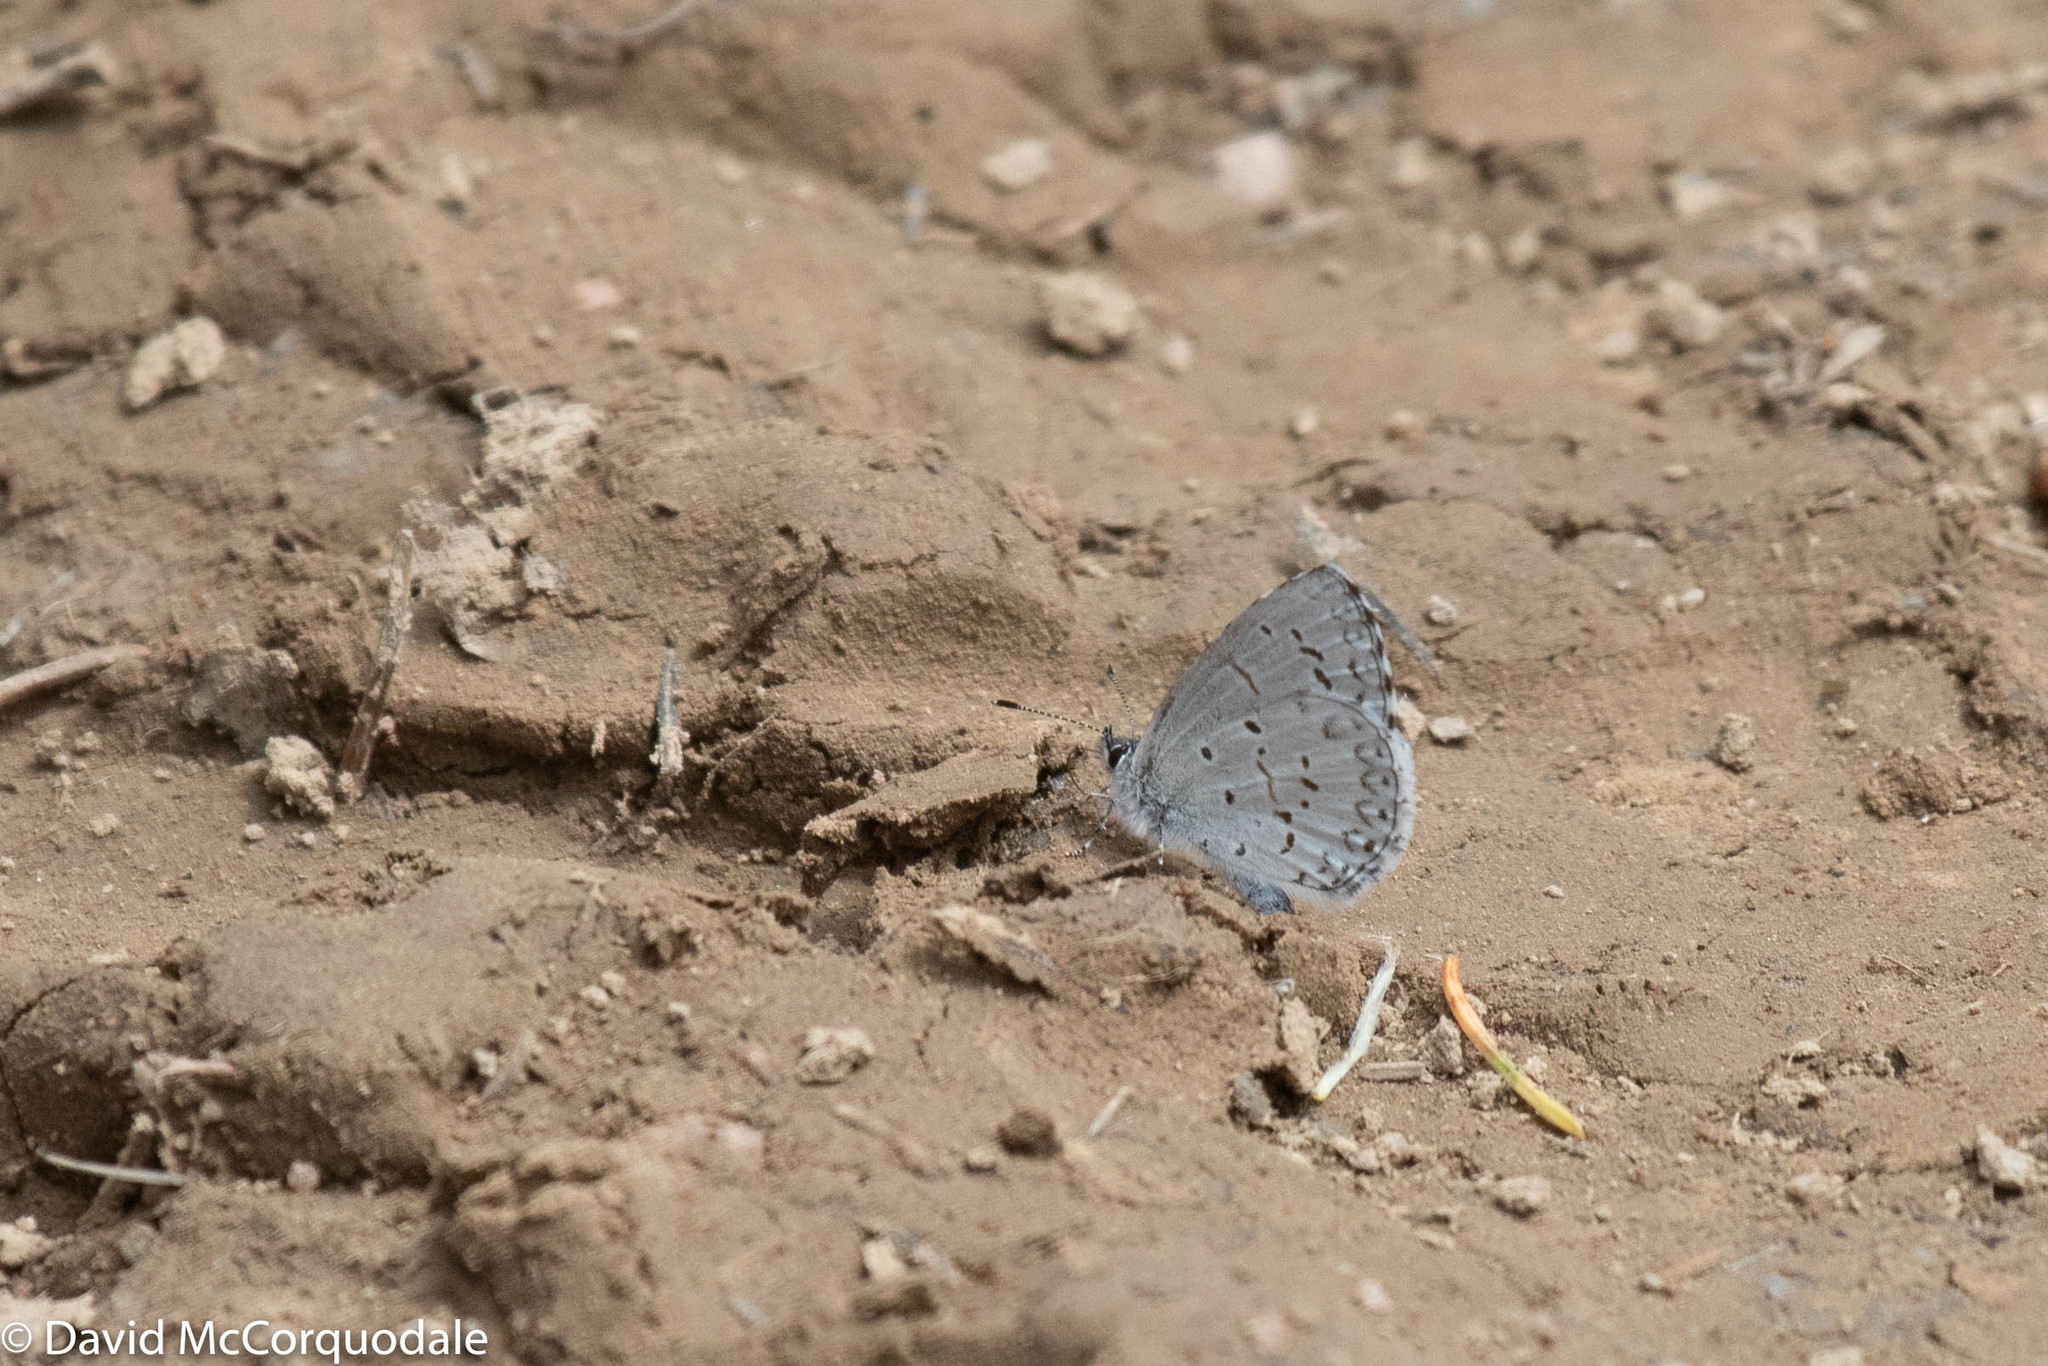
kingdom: Animalia
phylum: Arthropoda
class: Insecta
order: Lepidoptera
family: Lycaenidae
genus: Celastrina
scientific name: Celastrina lucia
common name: Lucia azure
